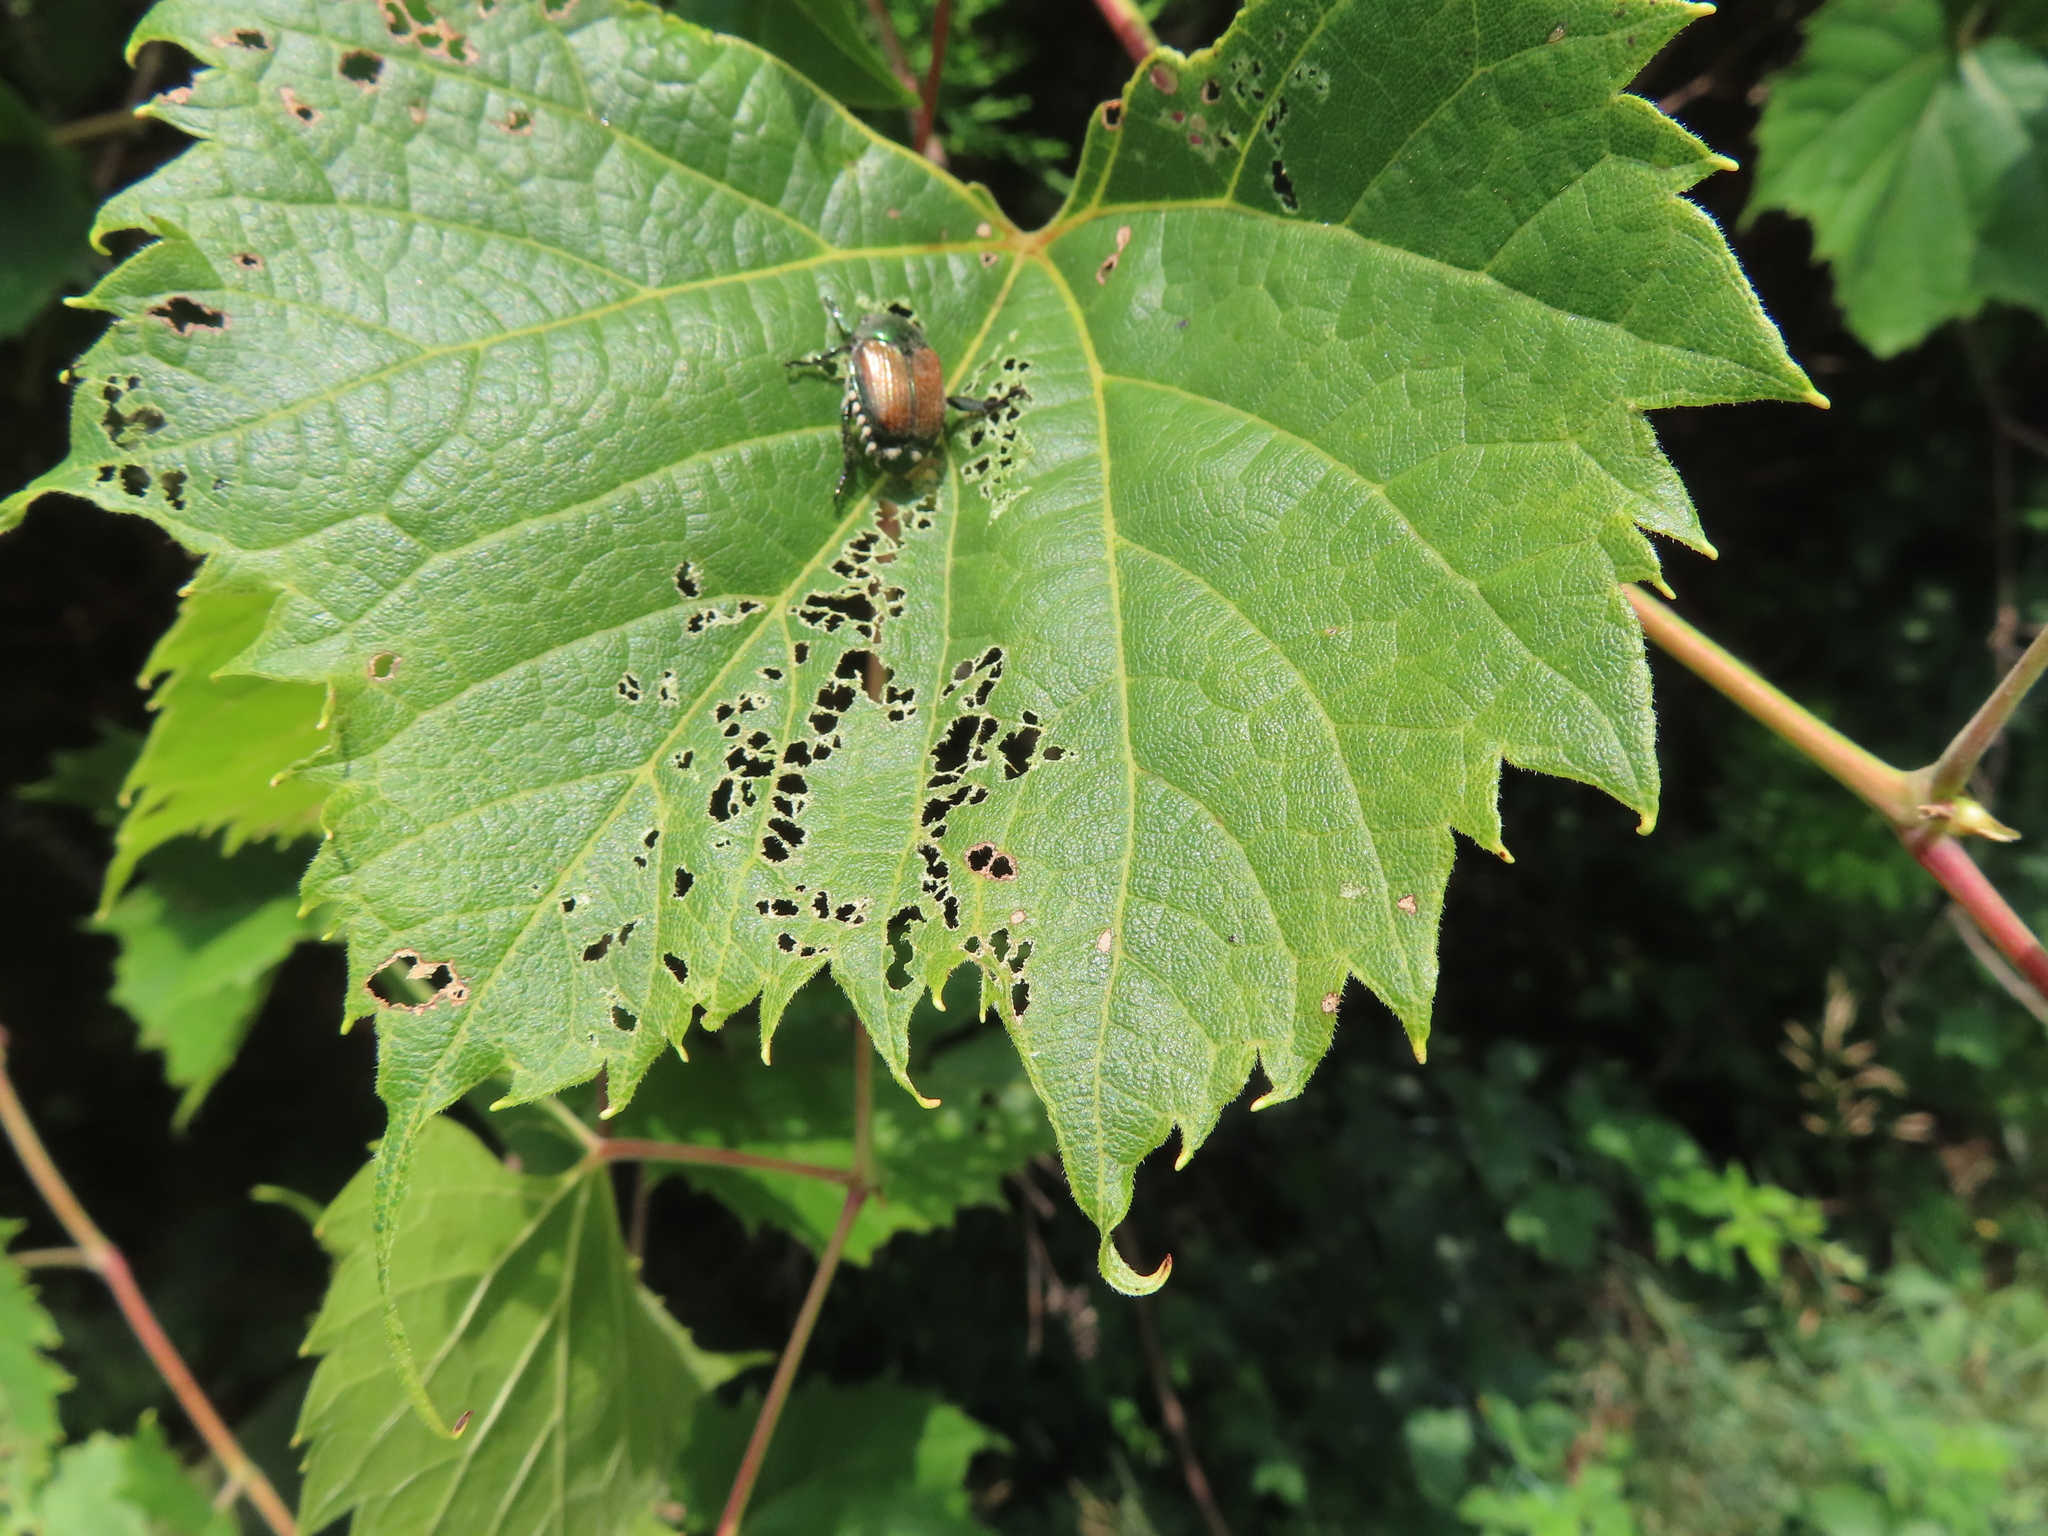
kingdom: Animalia
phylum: Arthropoda
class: Insecta
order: Coleoptera
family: Scarabaeidae
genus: Popillia
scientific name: Popillia japonica
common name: Japanese beetle
